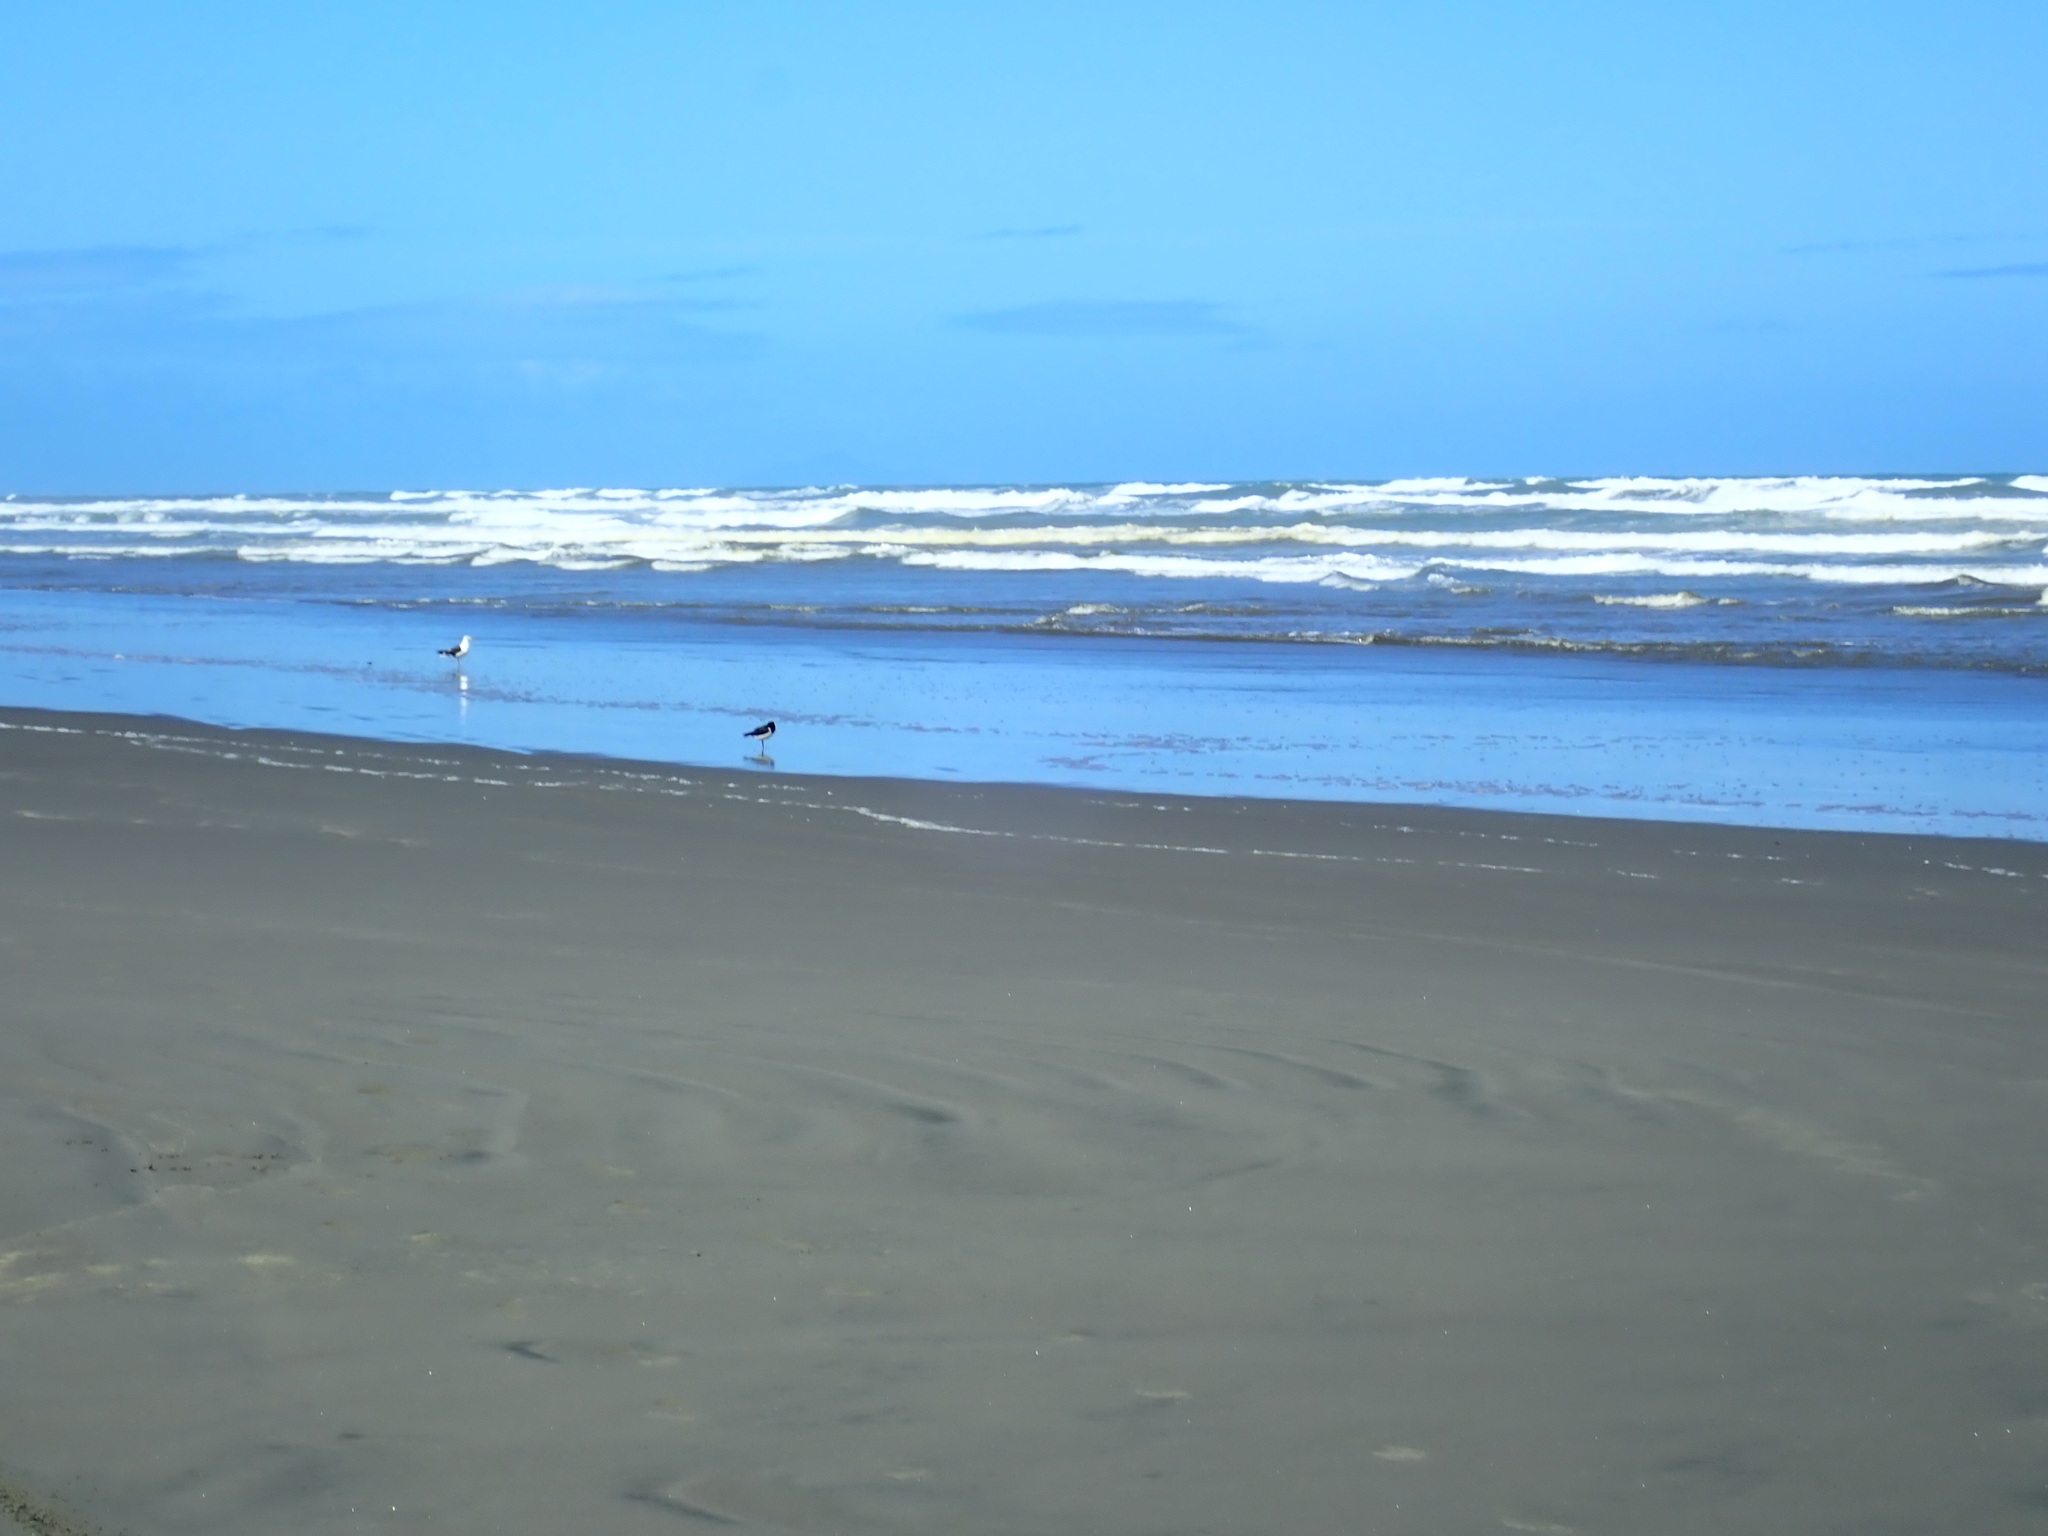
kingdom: Animalia
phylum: Chordata
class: Aves
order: Charadriiformes
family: Haematopodidae
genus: Haematopus
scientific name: Haematopus finschi
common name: South island oystercatcher
